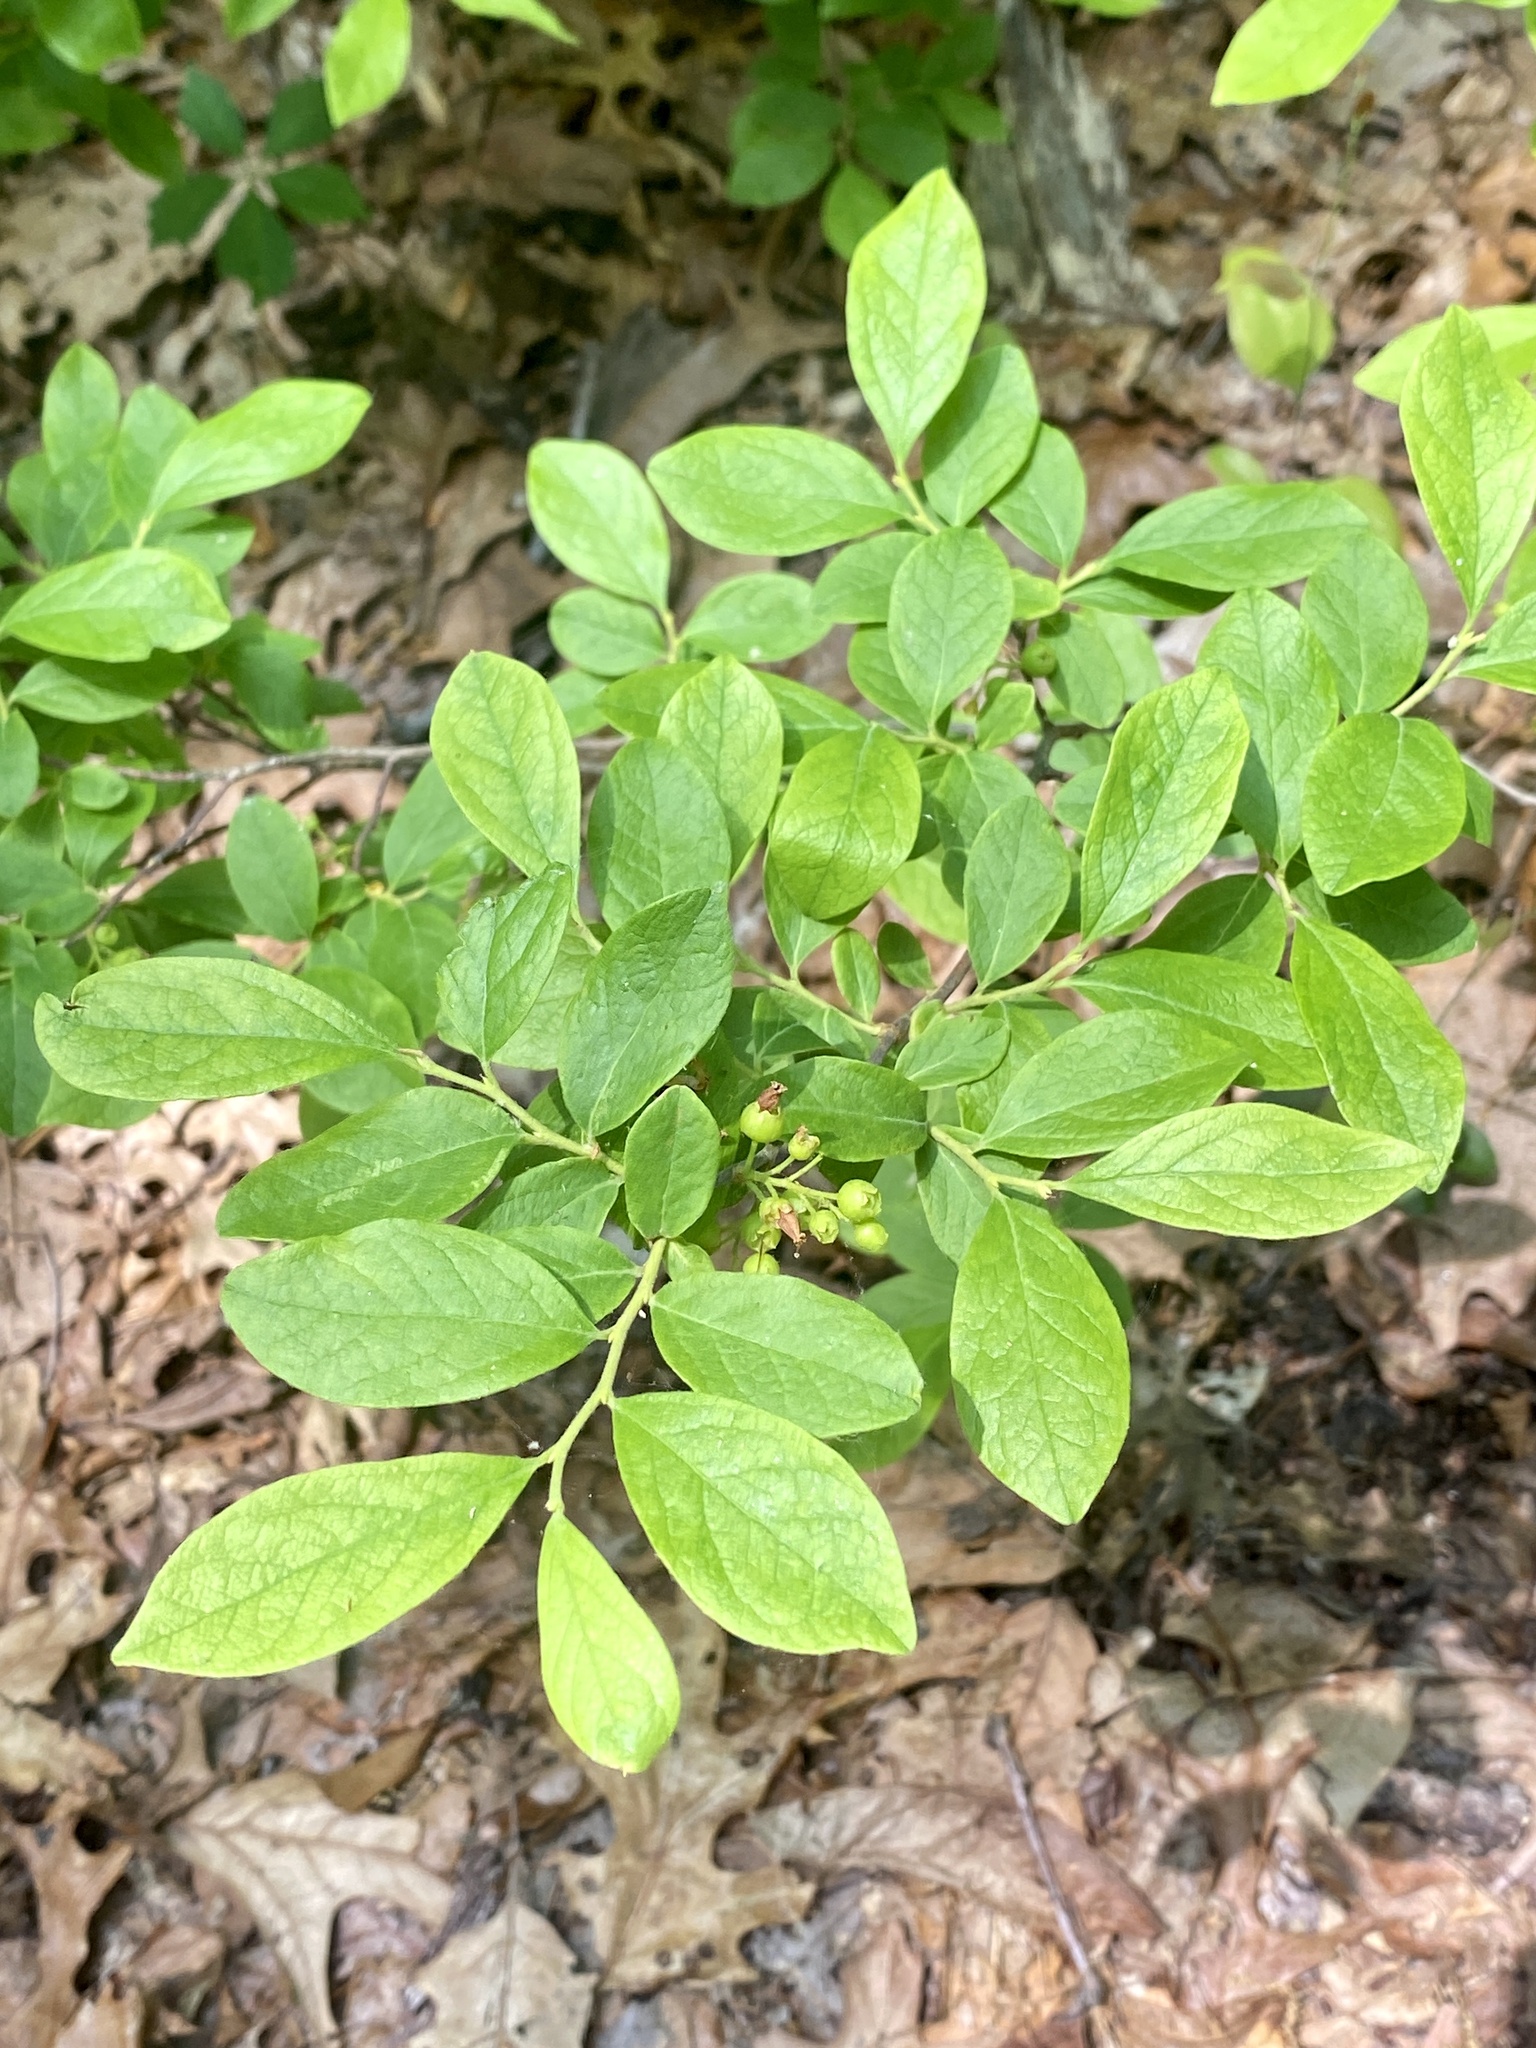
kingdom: Plantae
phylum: Tracheophyta
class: Magnoliopsida
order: Ericales
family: Ericaceae
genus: Gaylussacia
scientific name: Gaylussacia baccata
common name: Black huckleberry
